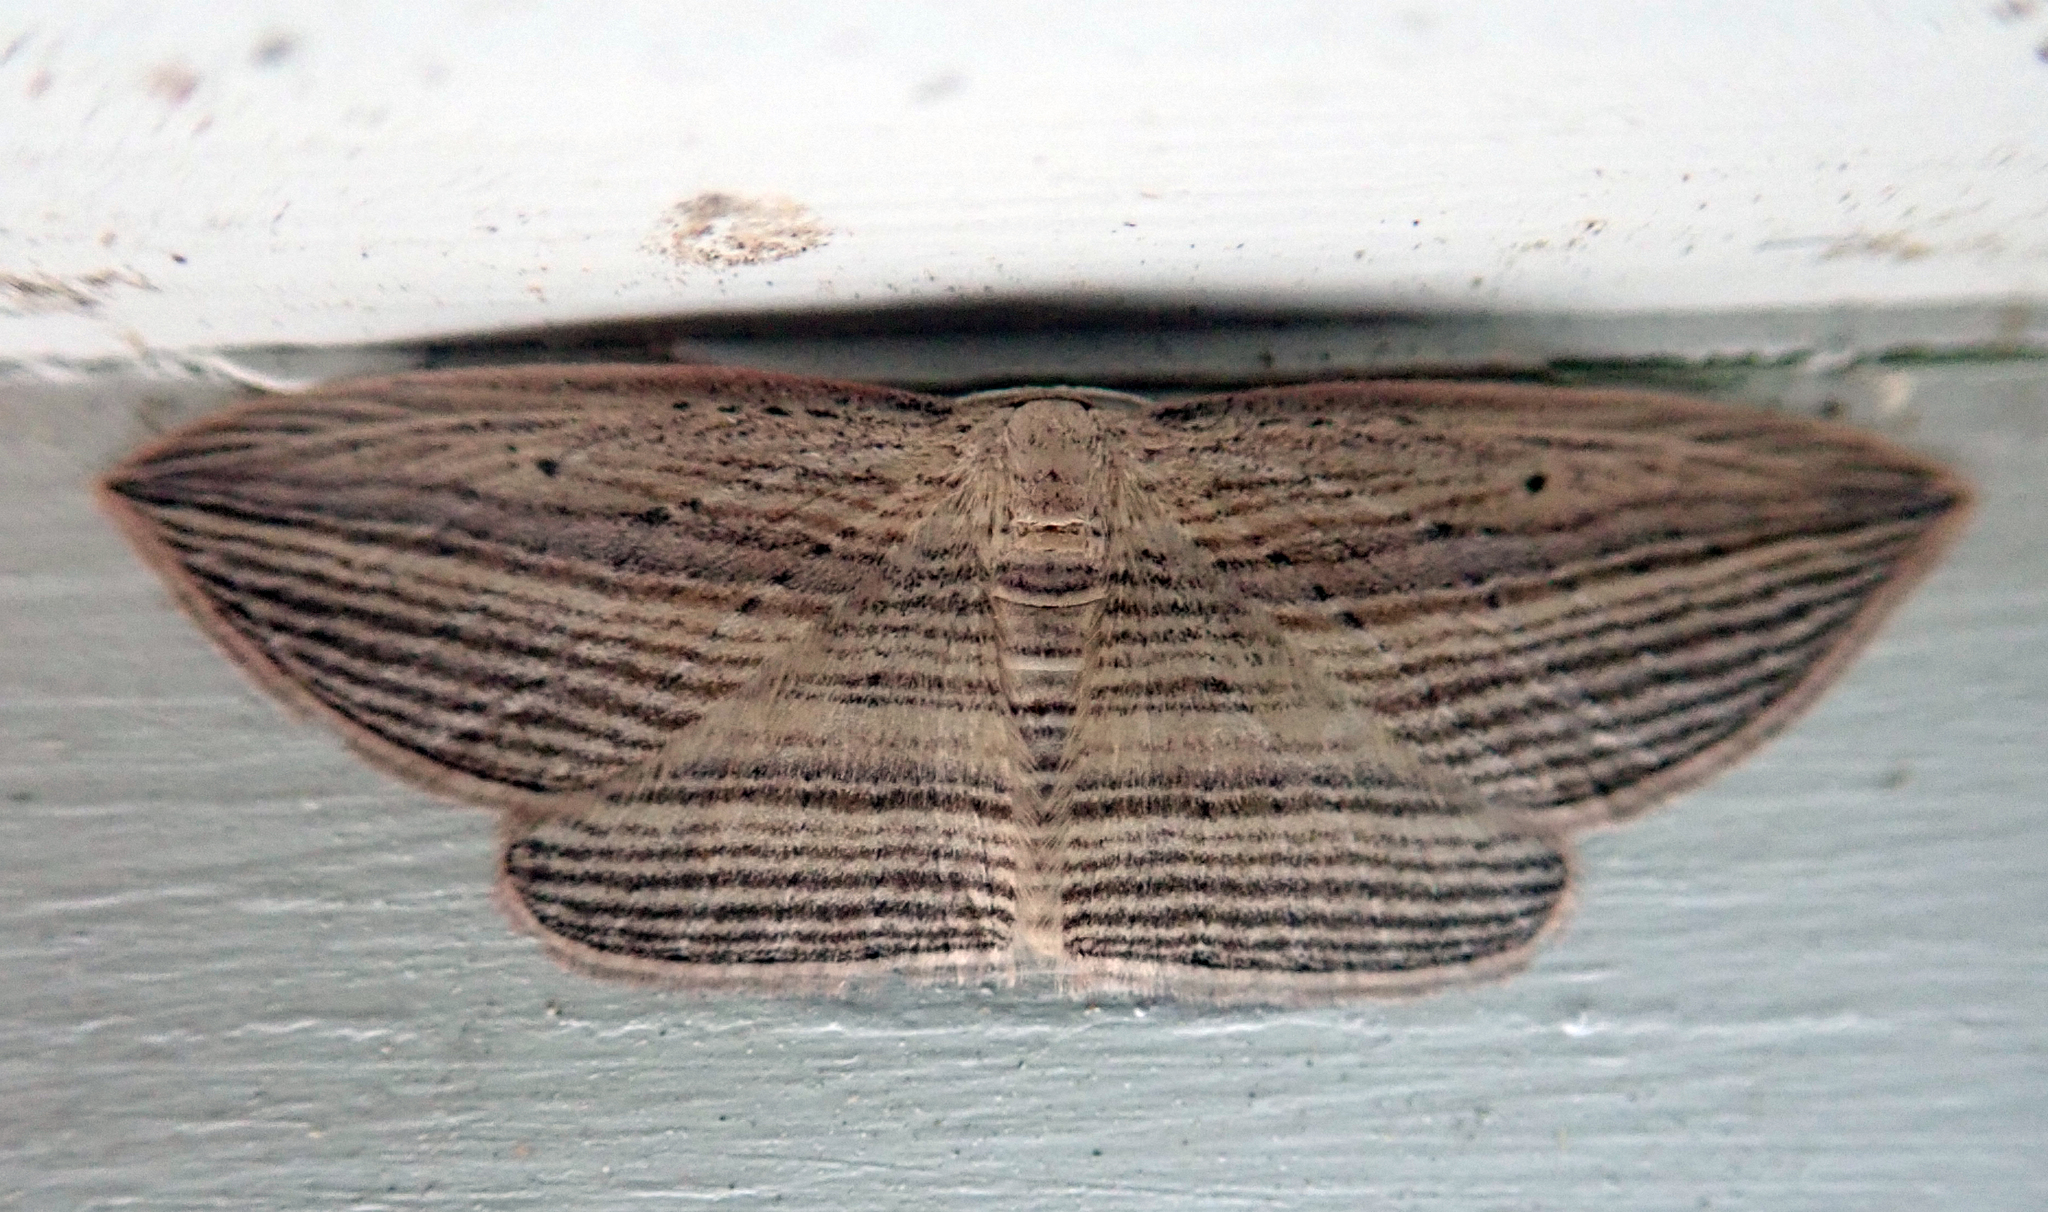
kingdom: Animalia
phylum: Arthropoda
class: Insecta
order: Lepidoptera
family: Geometridae
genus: Epiphryne
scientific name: Epiphryne verriculata
